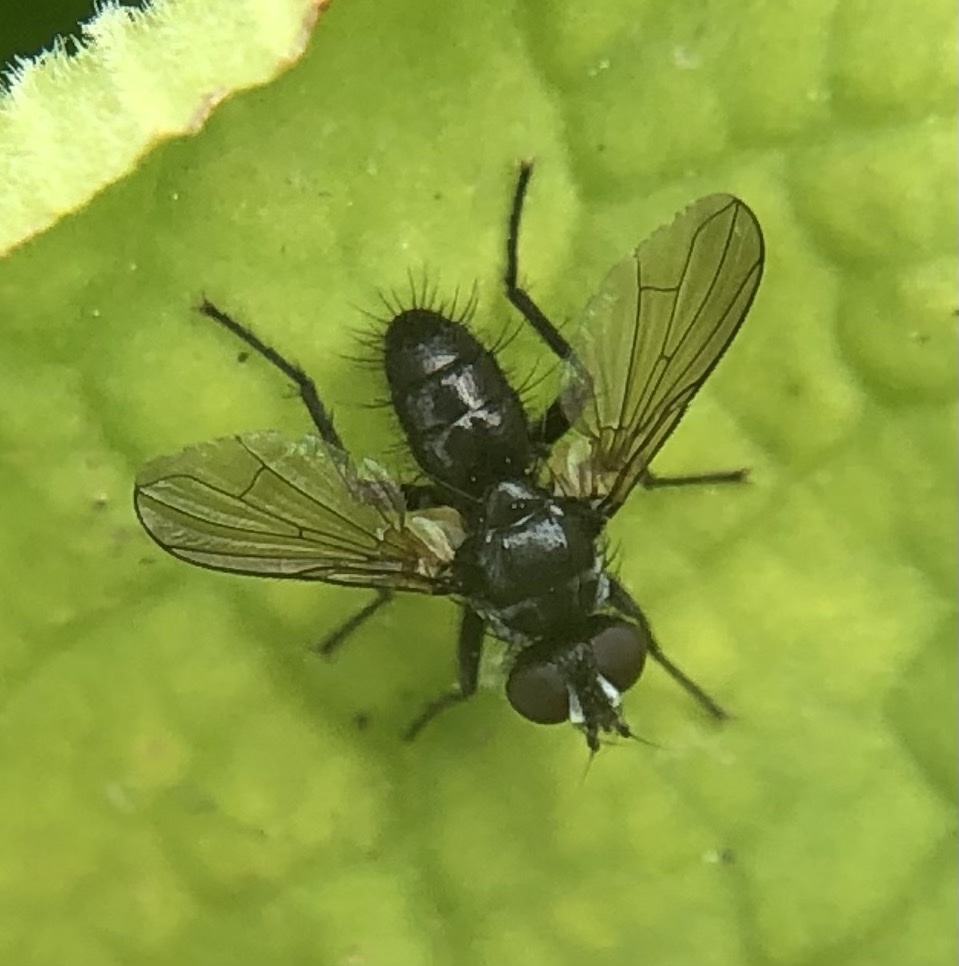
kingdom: Animalia
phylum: Arthropoda
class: Insecta
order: Diptera
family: Tachinidae
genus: Phania
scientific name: Phania funesta
